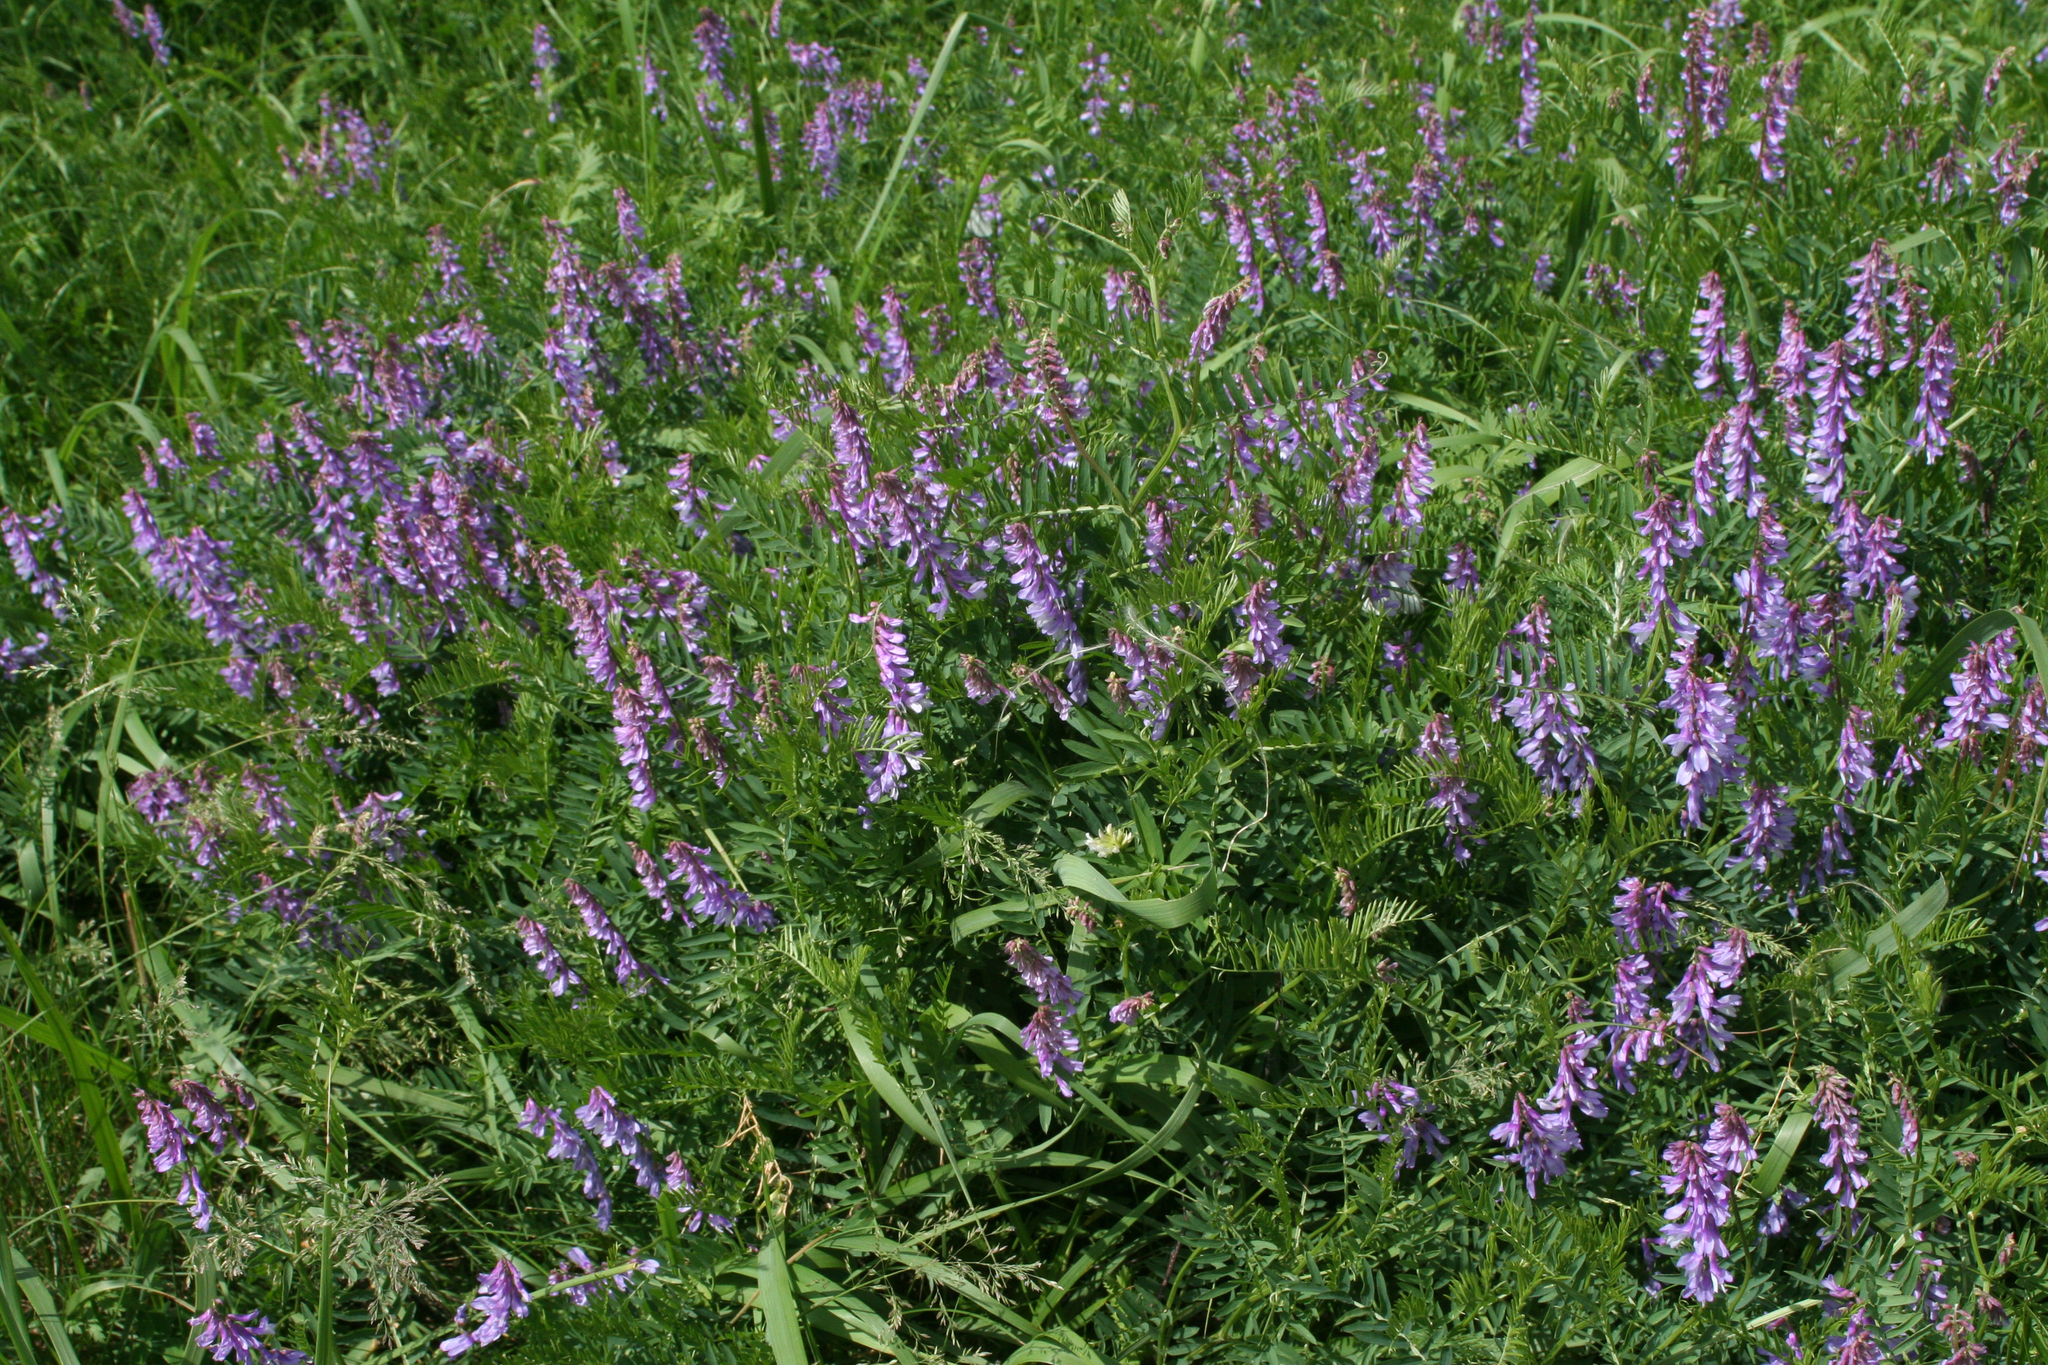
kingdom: Plantae
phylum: Tracheophyta
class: Magnoliopsida
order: Fabales
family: Fabaceae
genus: Vicia
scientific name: Vicia tenuifolia
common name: Fine-leaved vetch
